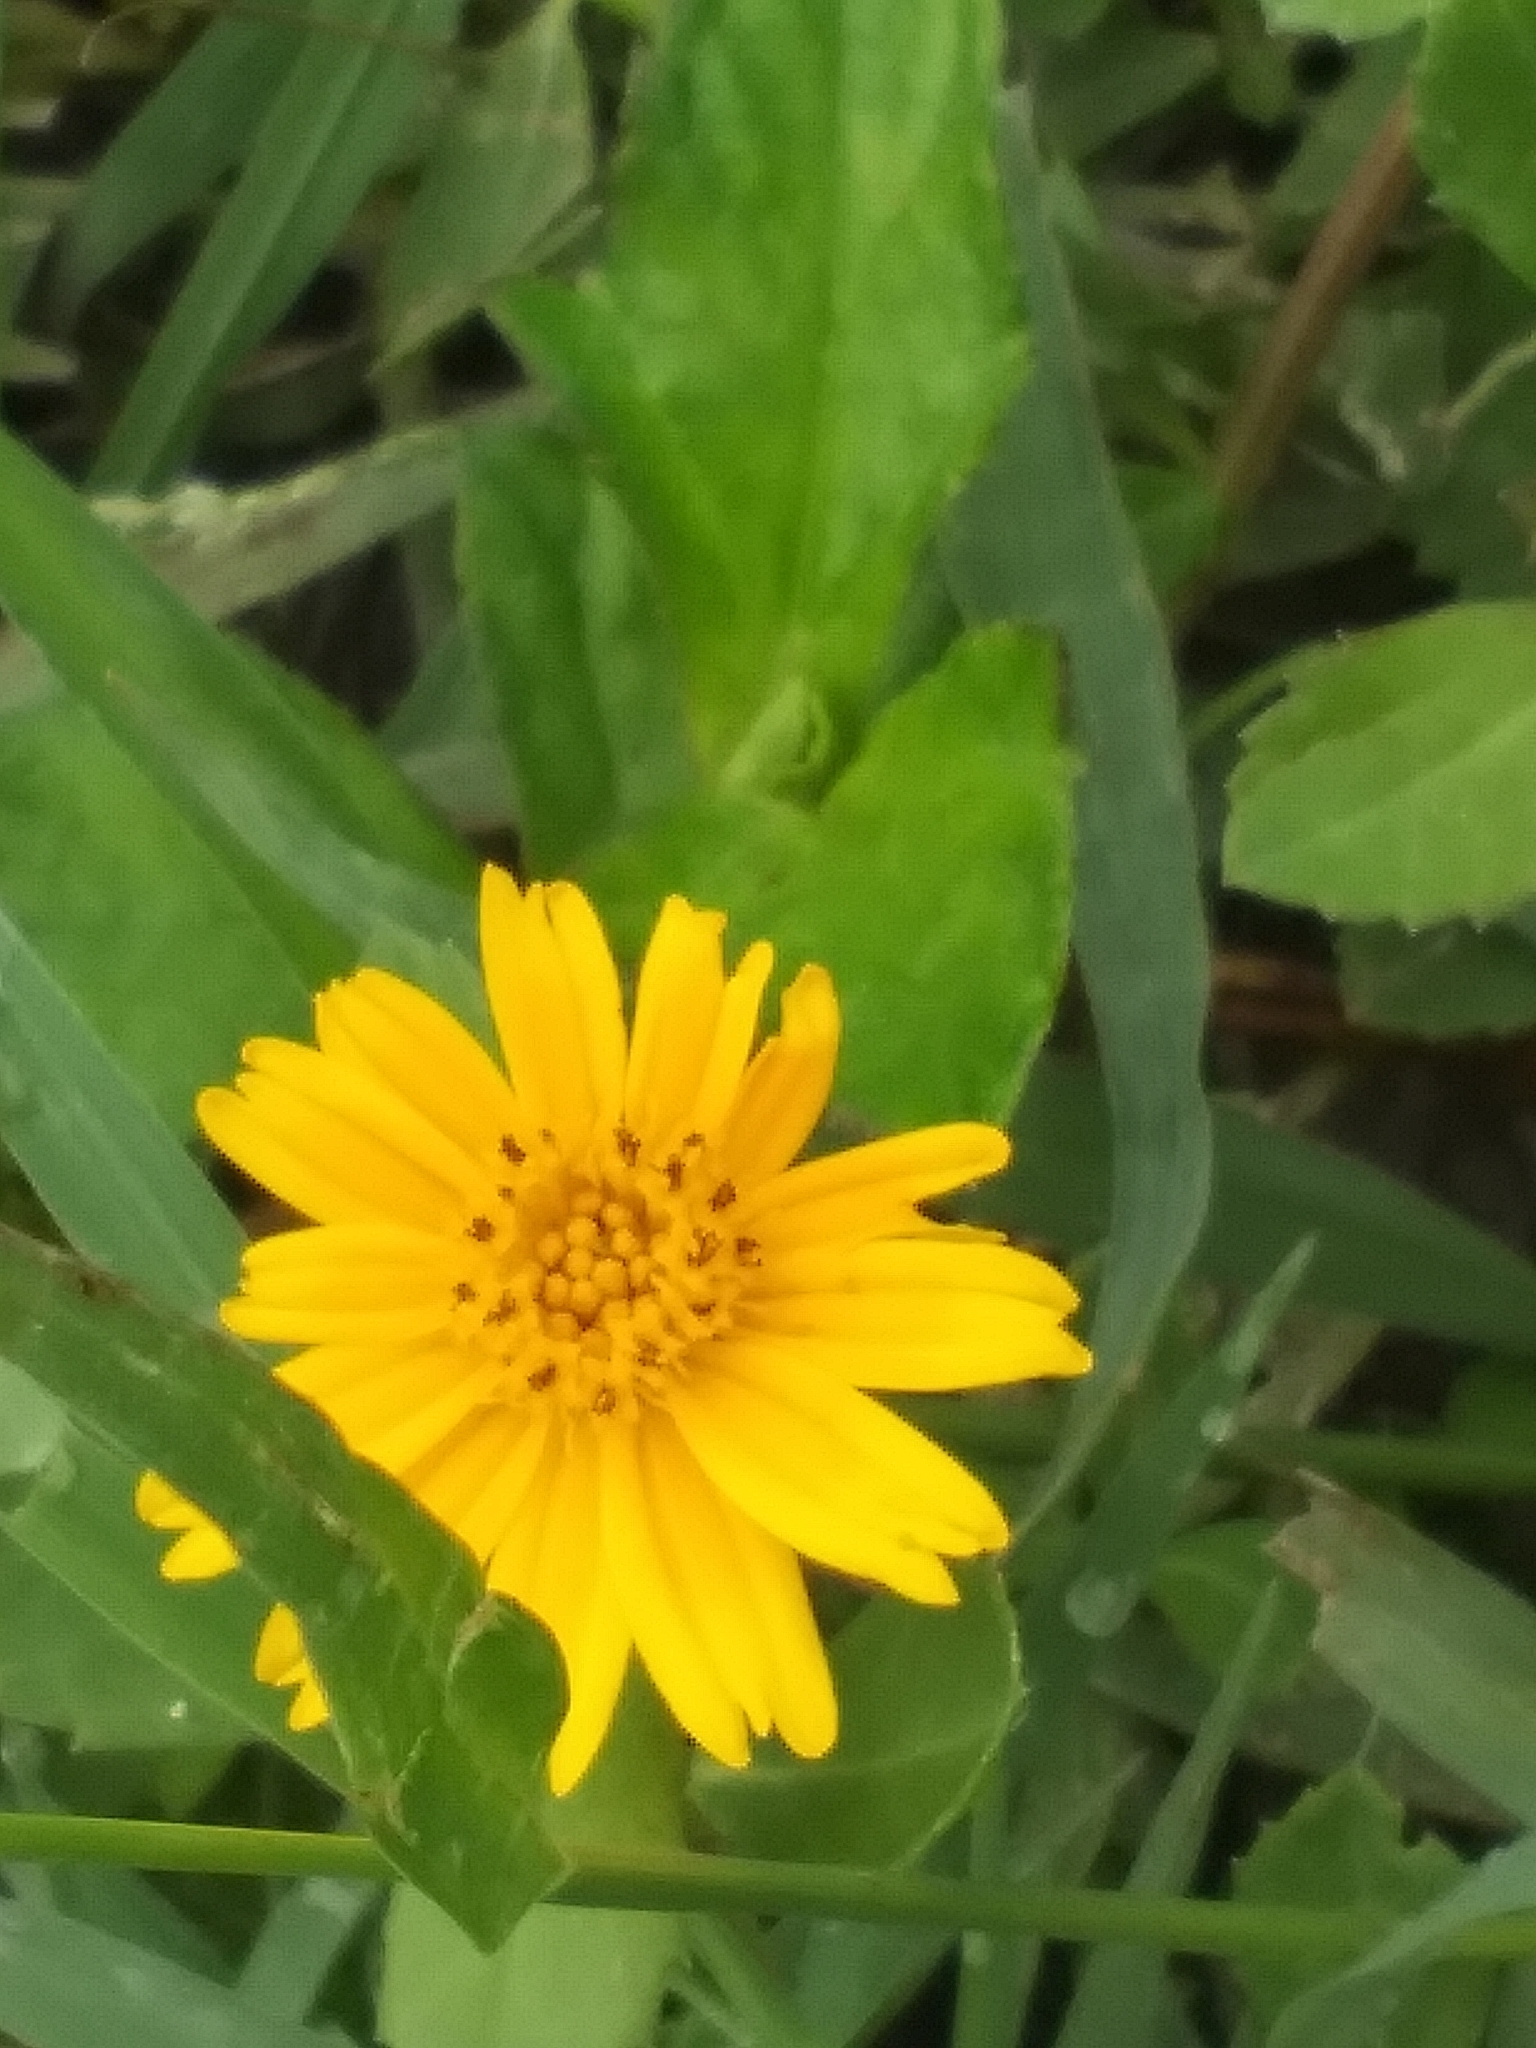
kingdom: Plantae
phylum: Tracheophyta
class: Magnoliopsida
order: Asterales
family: Asteraceae
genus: Sphagneticola
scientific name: Sphagneticola trilobata
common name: Bay biscayne creeping-oxeye
